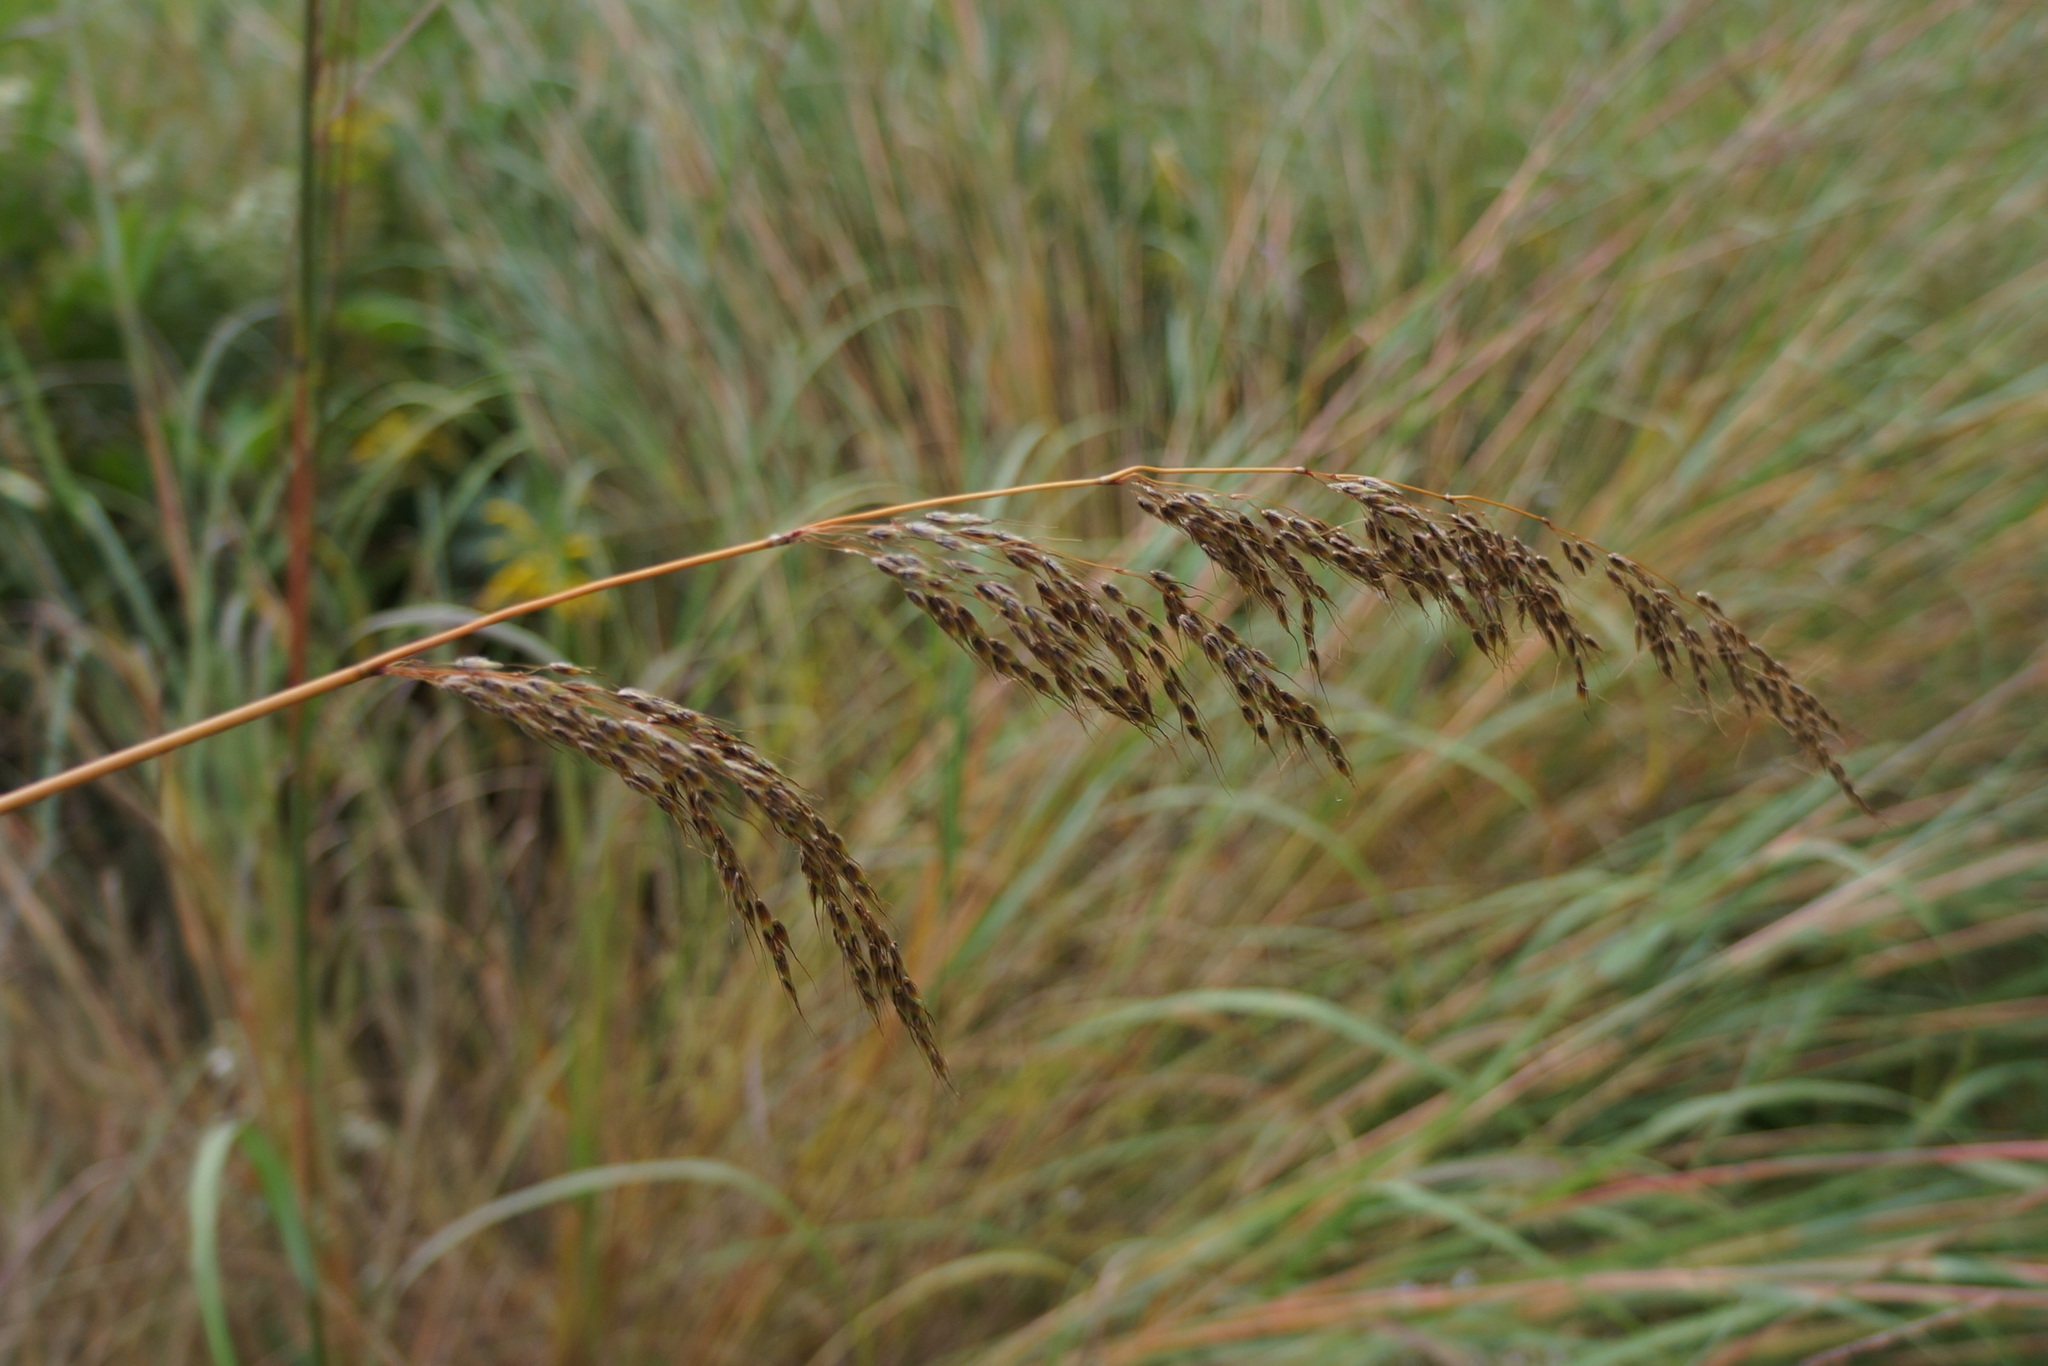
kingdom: Plantae
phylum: Tracheophyta
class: Liliopsida
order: Poales
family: Poaceae
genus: Sorghastrum
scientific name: Sorghastrum nutans
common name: Indian grass
